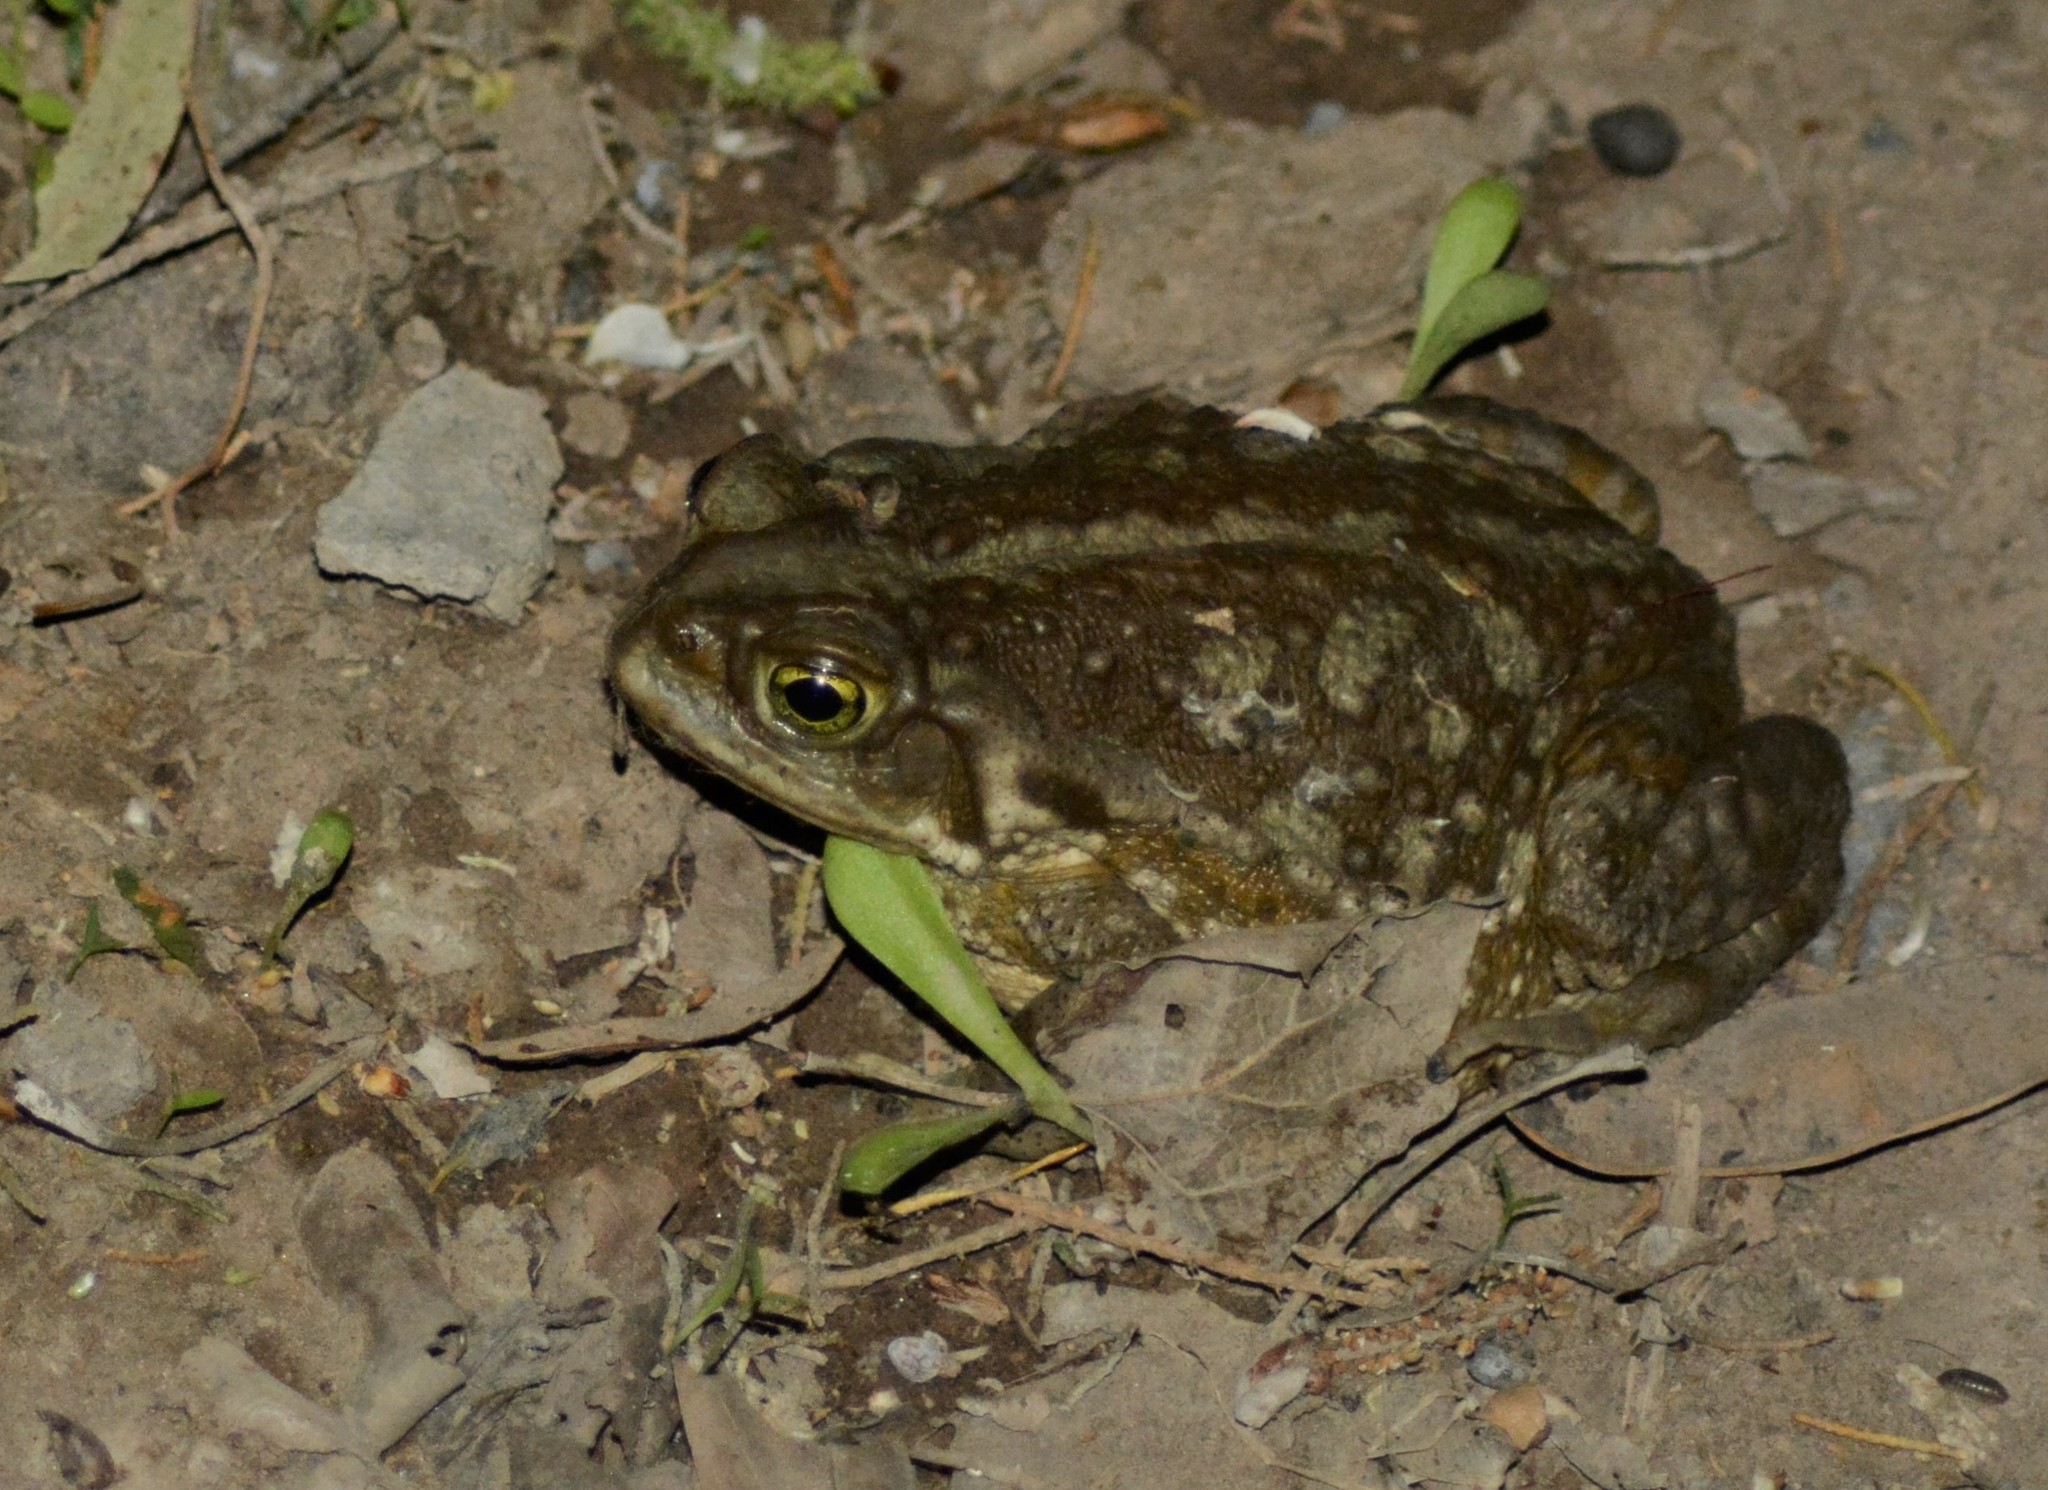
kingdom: Animalia
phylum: Chordata
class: Amphibia
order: Anura
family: Bufonidae
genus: Rhinella
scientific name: Rhinella arenarum
